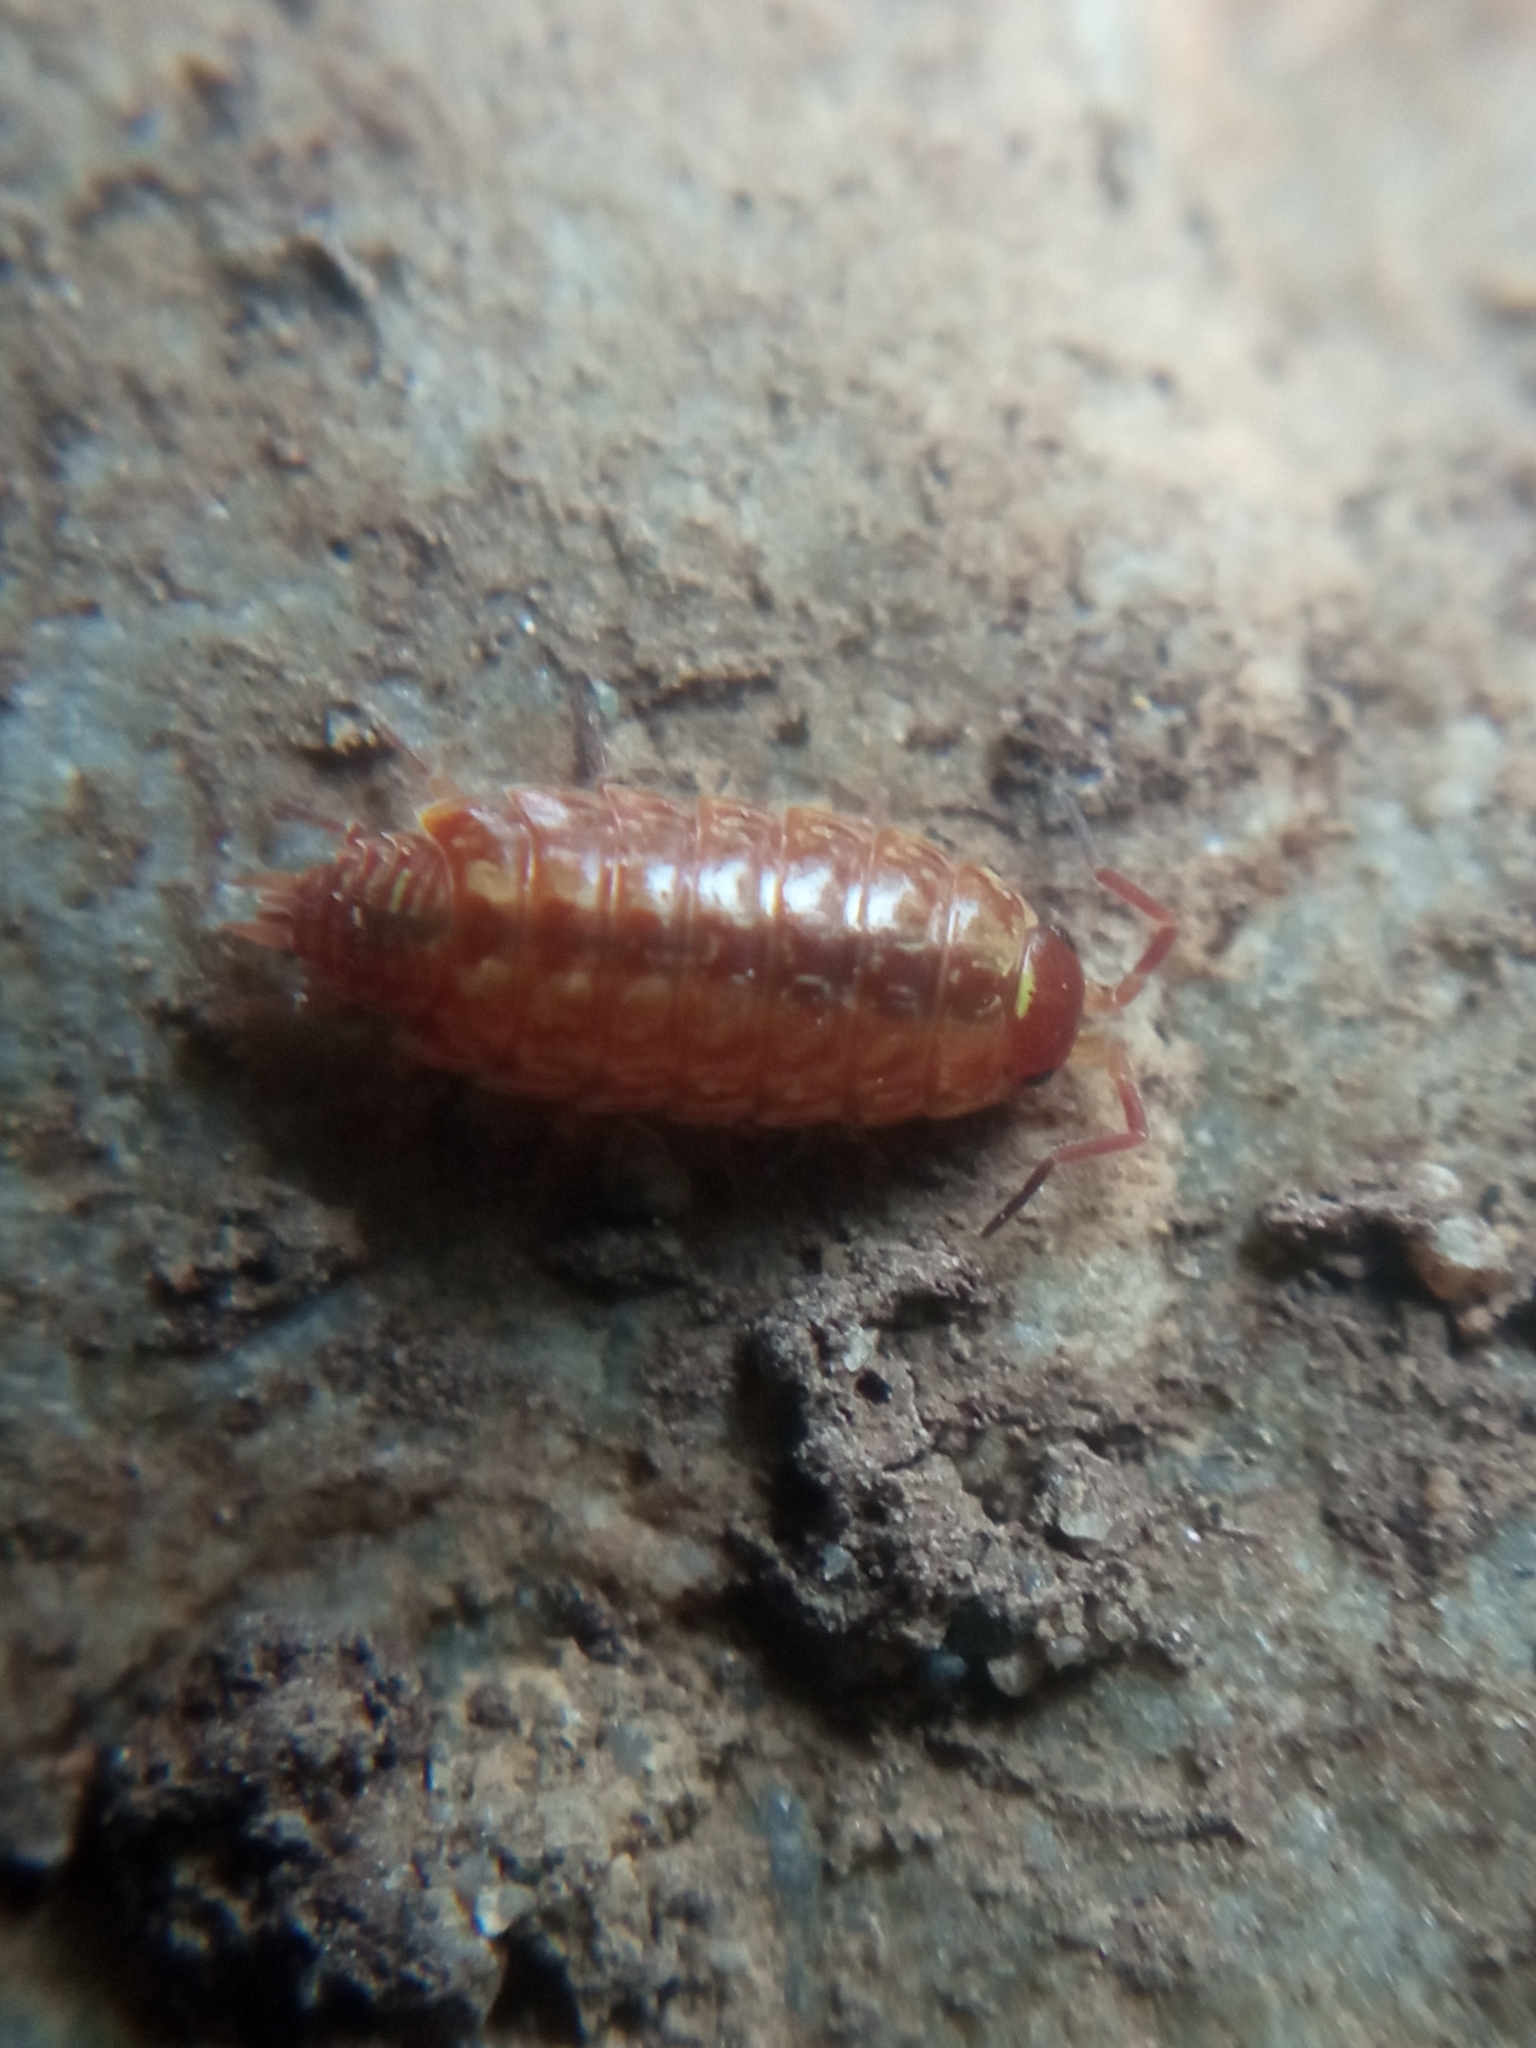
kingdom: Animalia
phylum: Arthropoda
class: Malacostraca
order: Isopoda
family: Philosciidae
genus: Philoscia
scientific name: Philoscia muscorum
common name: Common striped woodlouse
